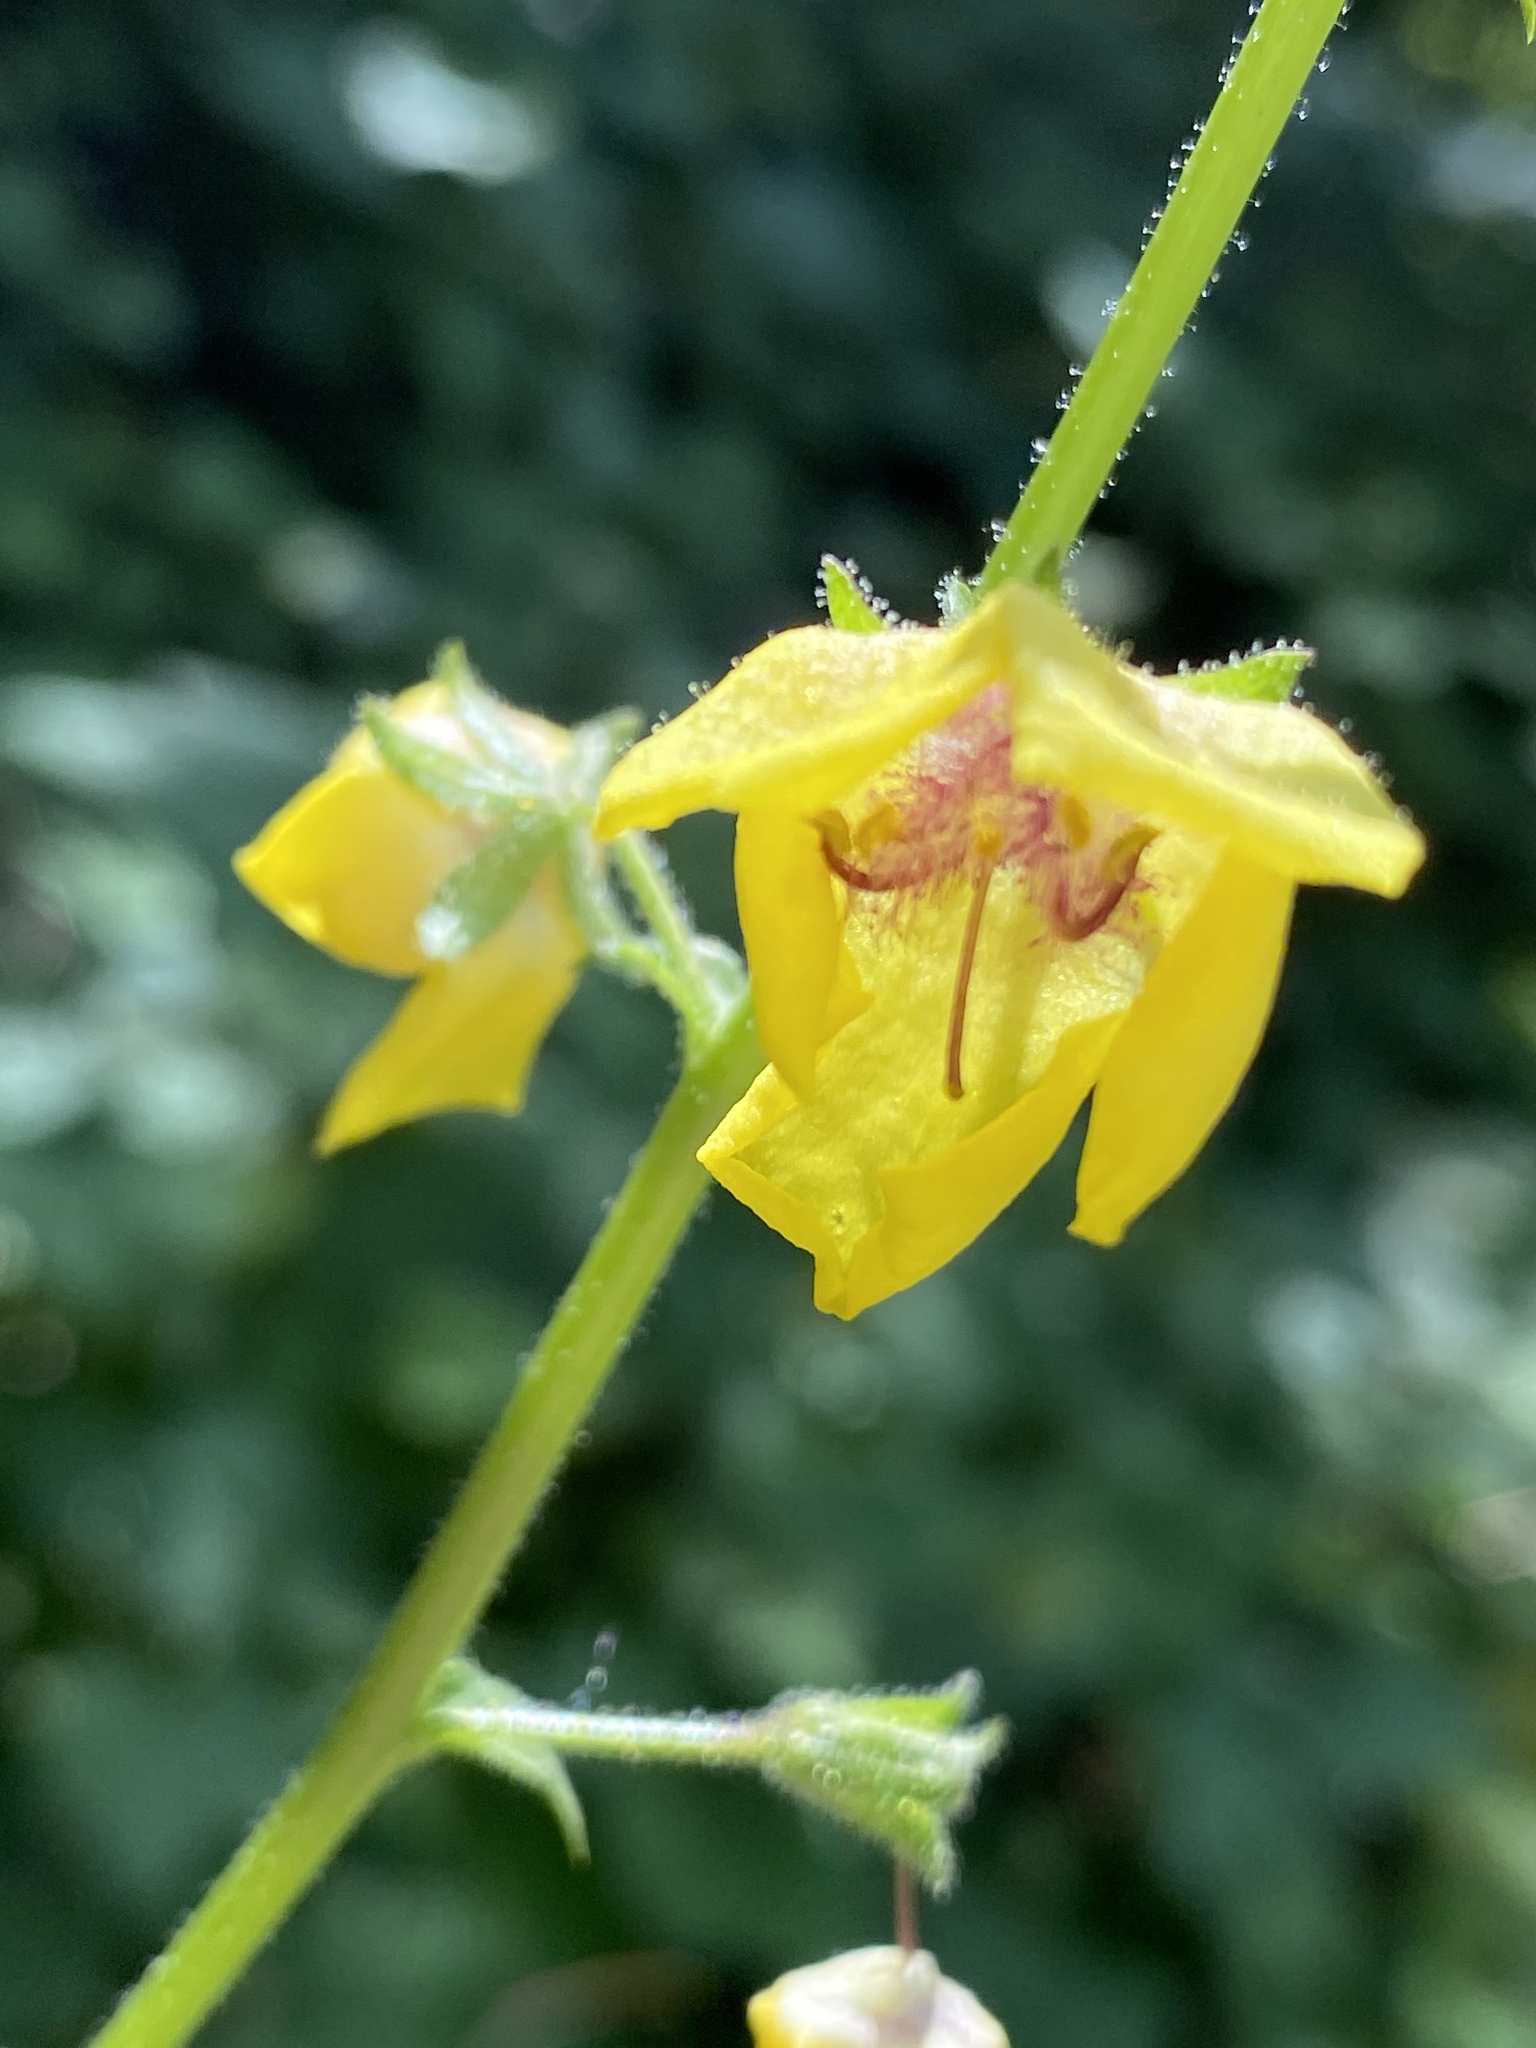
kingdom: Plantae
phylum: Tracheophyta
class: Magnoliopsida
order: Lamiales
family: Scrophulariaceae
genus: Verbascum
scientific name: Verbascum blattaria
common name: Moth mullein
